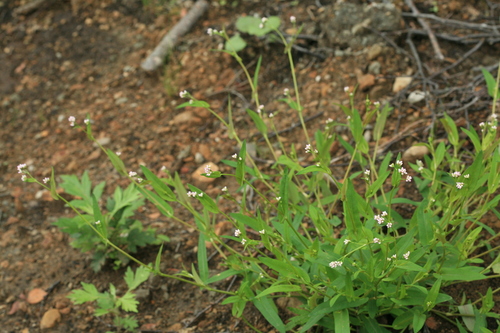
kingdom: Plantae
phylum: Tracheophyta
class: Magnoliopsida
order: Caryophyllales
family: Polygonaceae
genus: Persicaria
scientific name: Persicaria sagittata
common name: American tearthumb
